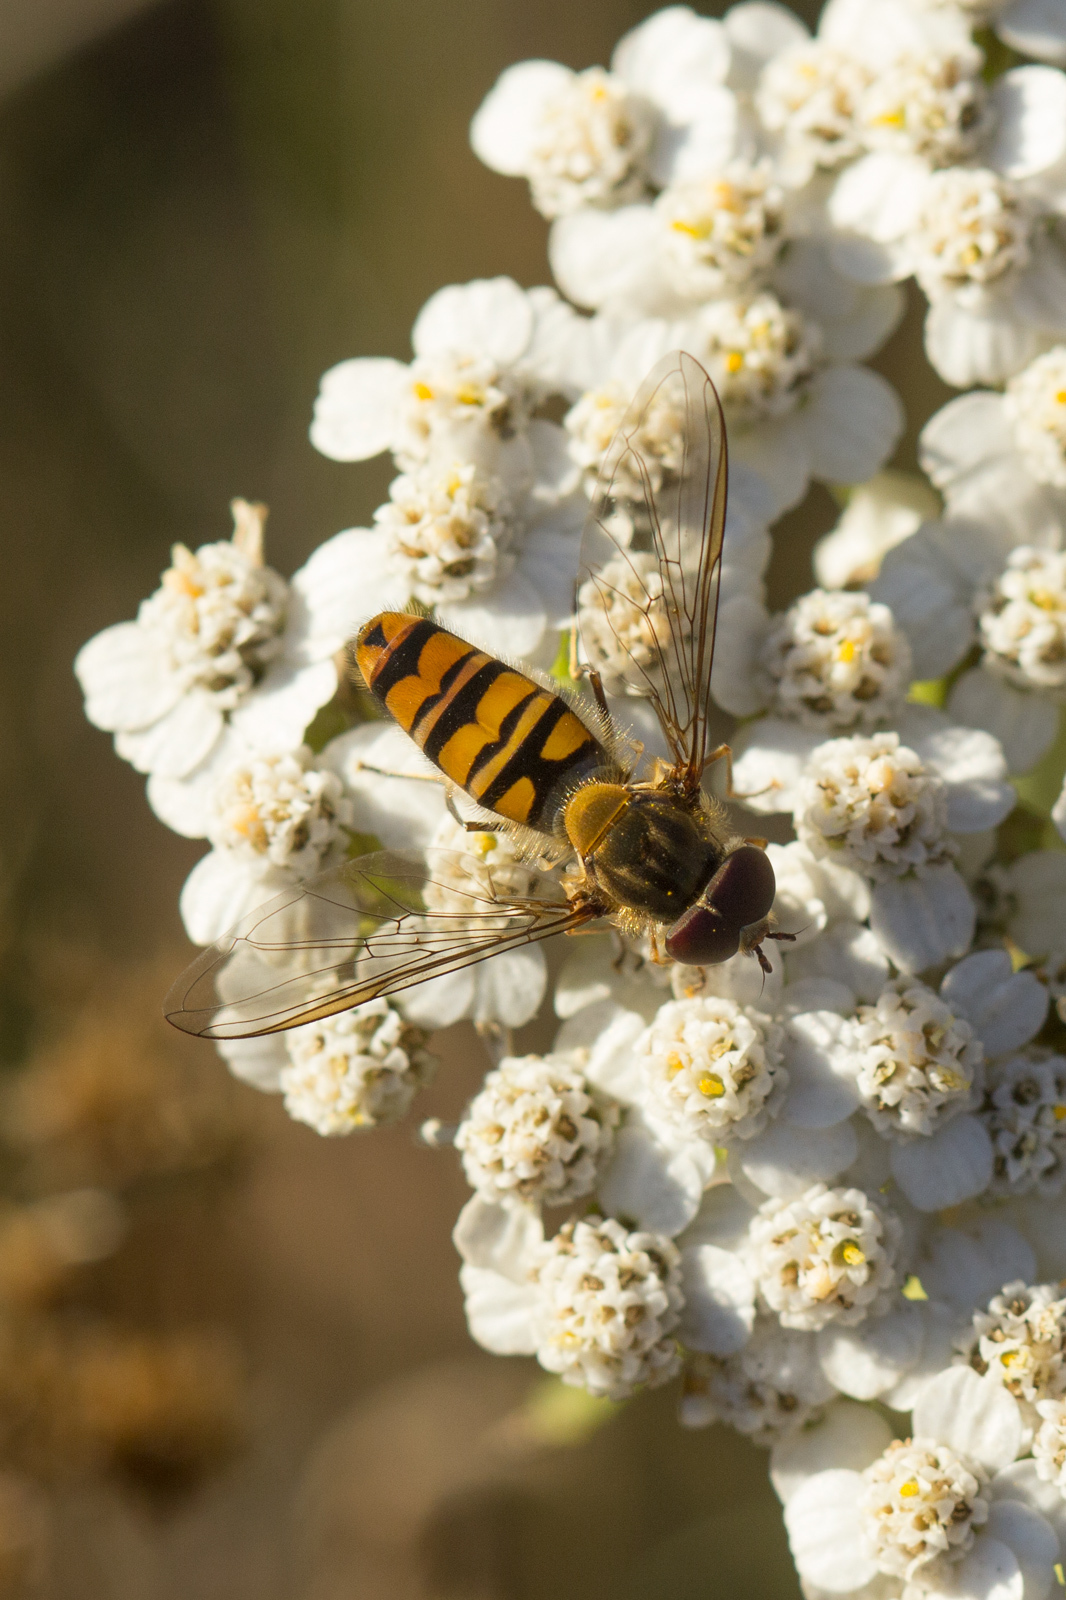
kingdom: Animalia
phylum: Arthropoda
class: Insecta
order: Diptera
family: Syrphidae
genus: Episyrphus
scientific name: Episyrphus balteatus
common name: Marmalade hoverfly
